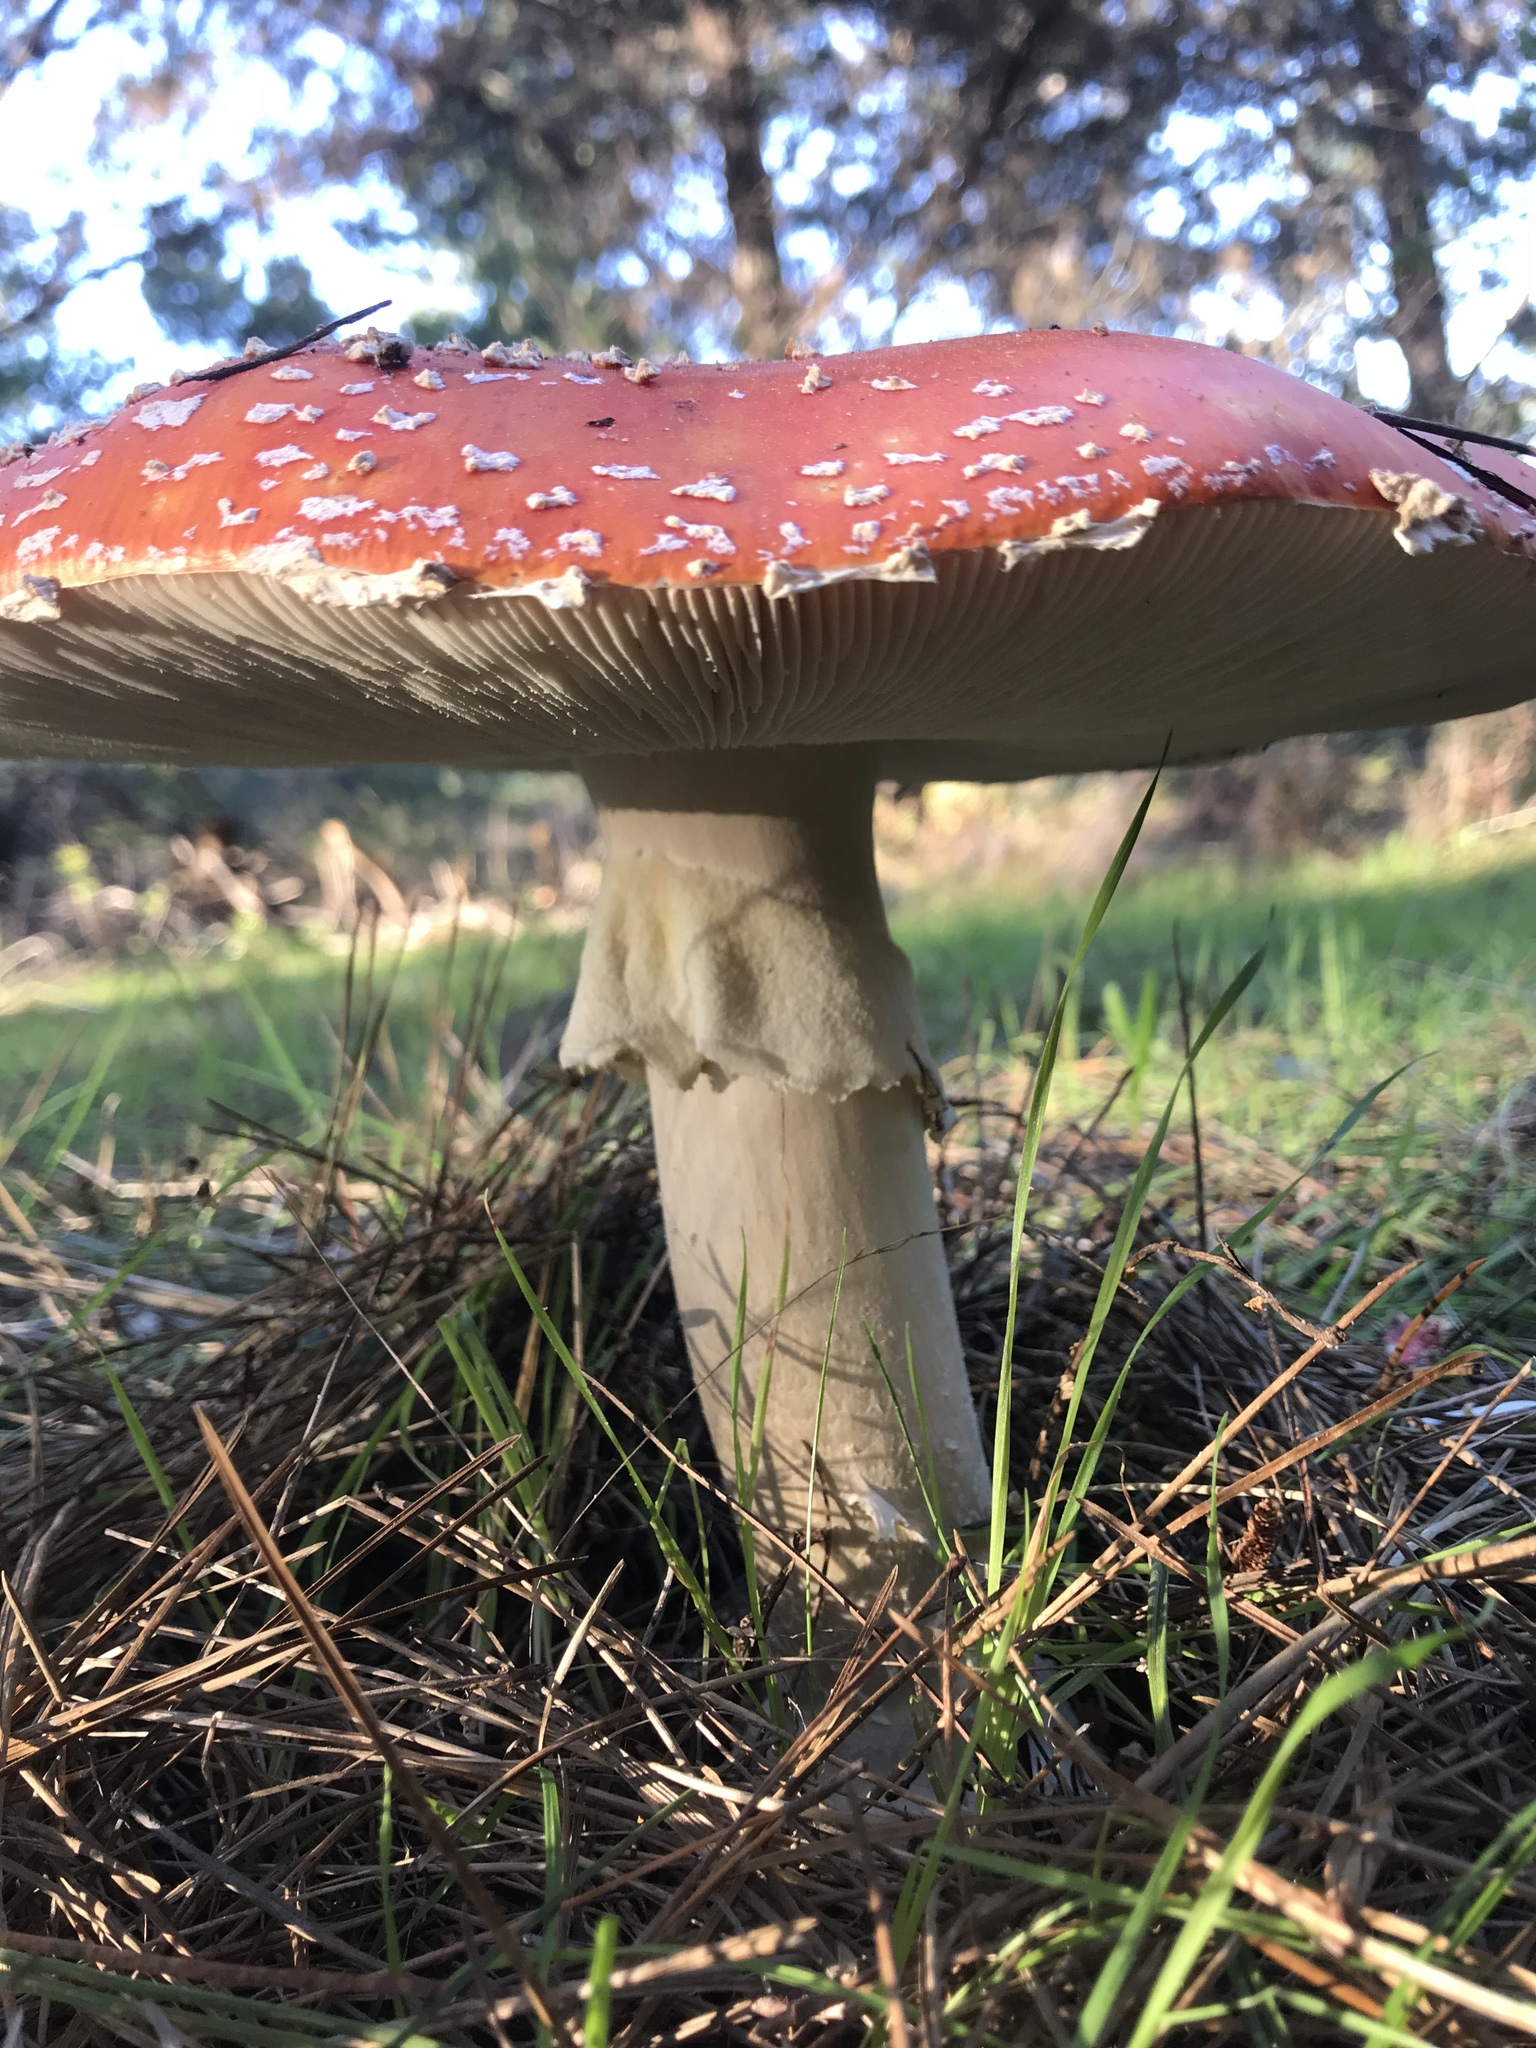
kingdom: Fungi
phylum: Basidiomycota
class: Agaricomycetes
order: Agaricales
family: Amanitaceae
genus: Amanita
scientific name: Amanita muscaria
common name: Fly agaric
